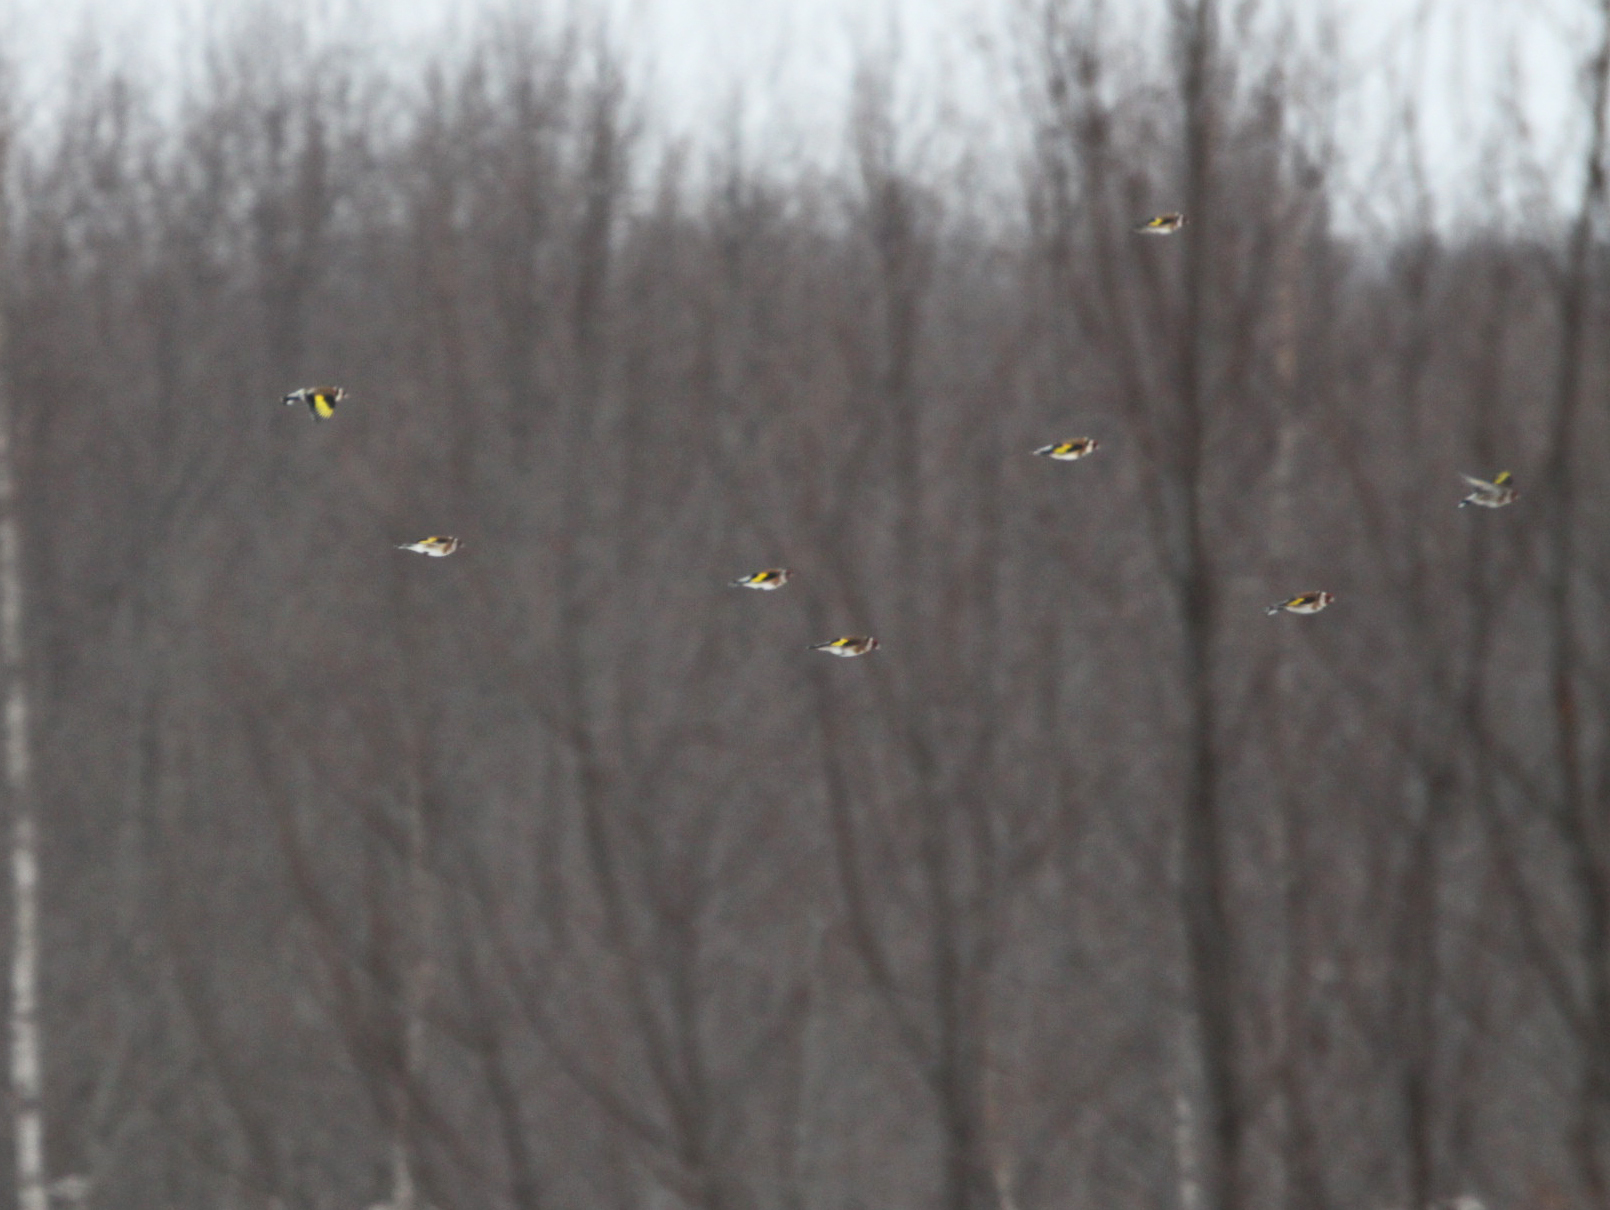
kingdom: Animalia
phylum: Chordata
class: Aves
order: Passeriformes
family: Fringillidae
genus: Carduelis
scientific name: Carduelis carduelis
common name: European goldfinch
